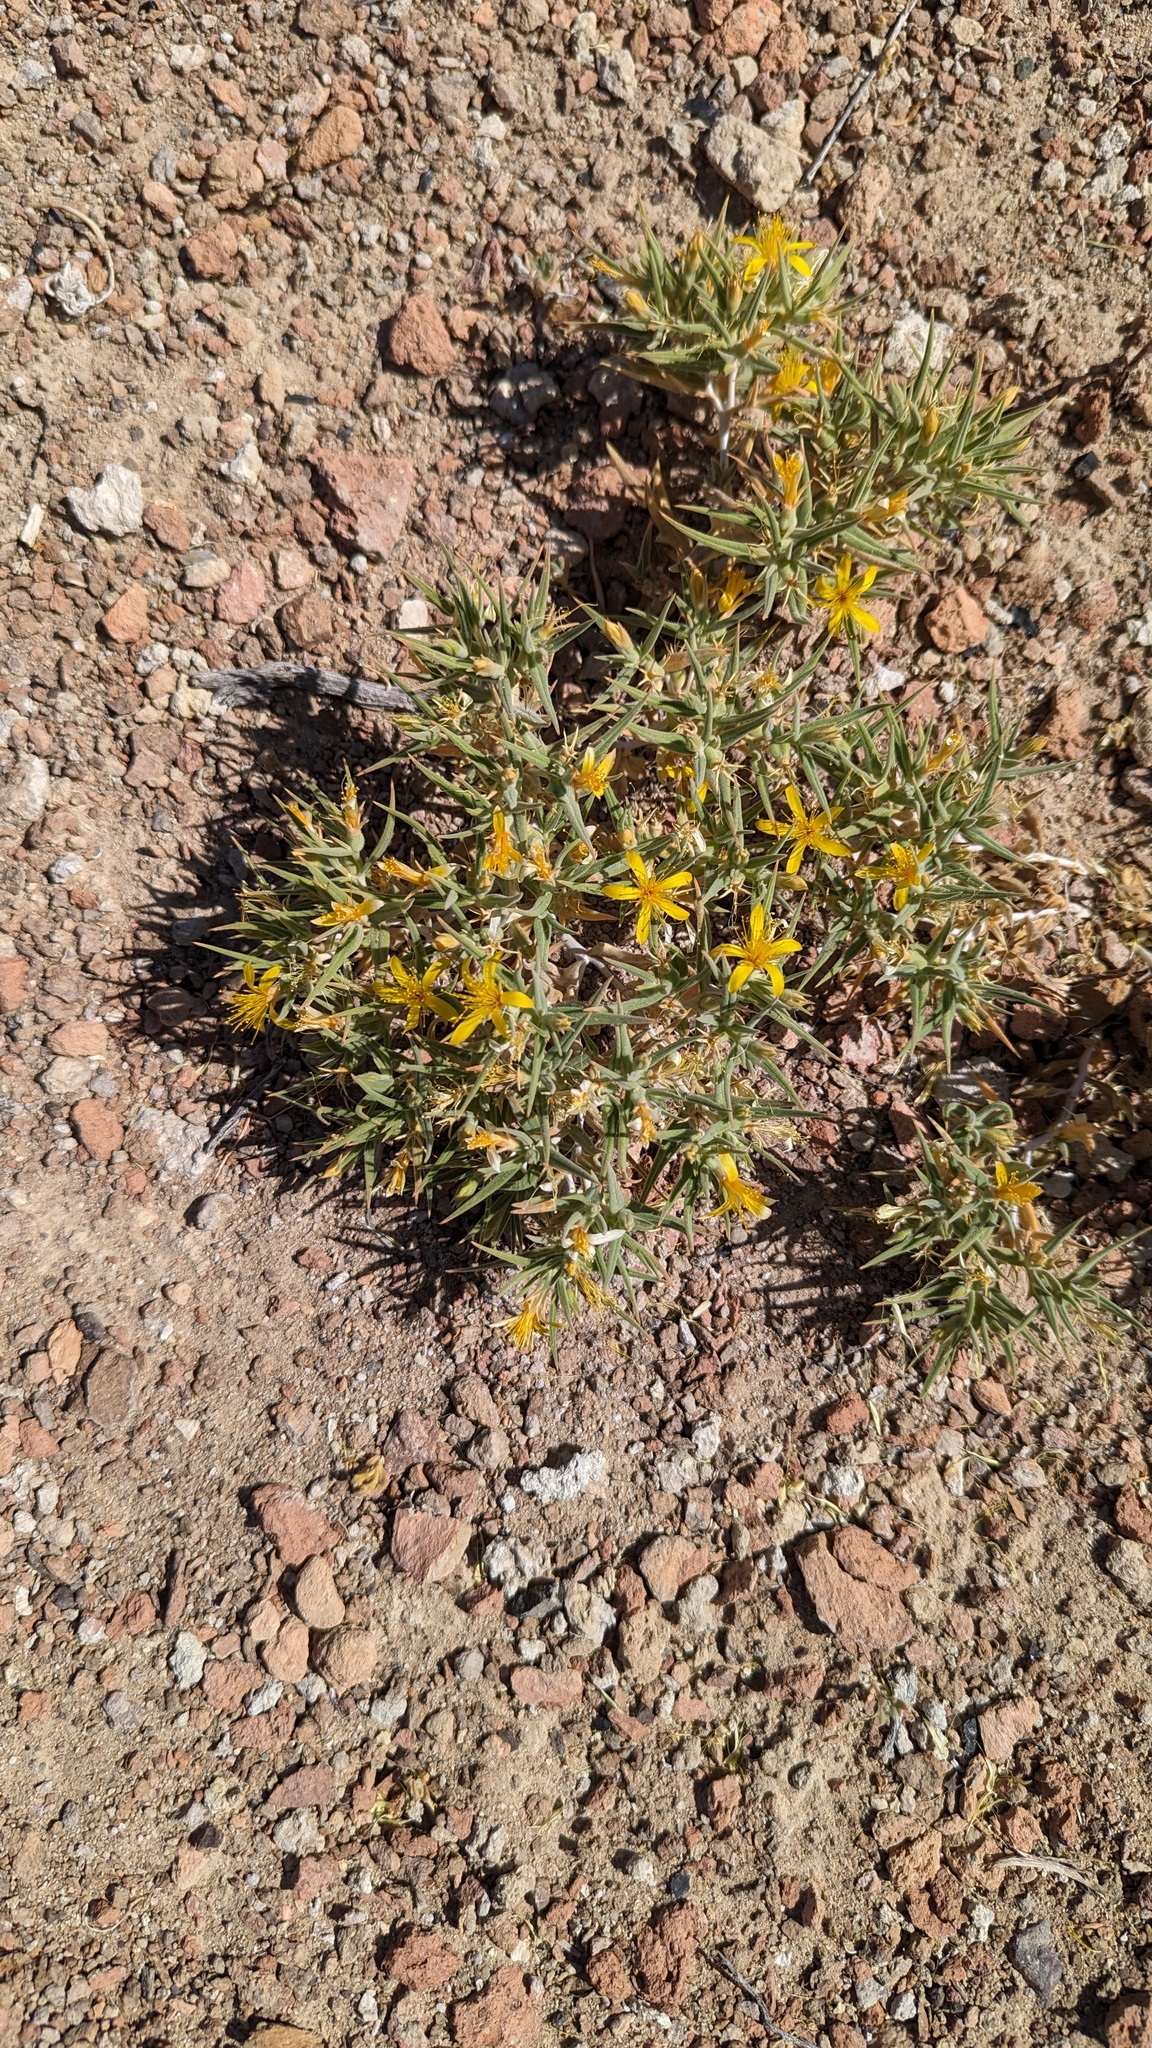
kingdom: Plantae
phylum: Tracheophyta
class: Magnoliopsida
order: Cornales
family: Loasaceae
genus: Mentzelia
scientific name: Mentzelia torreyi
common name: Torrey's blazingstar
